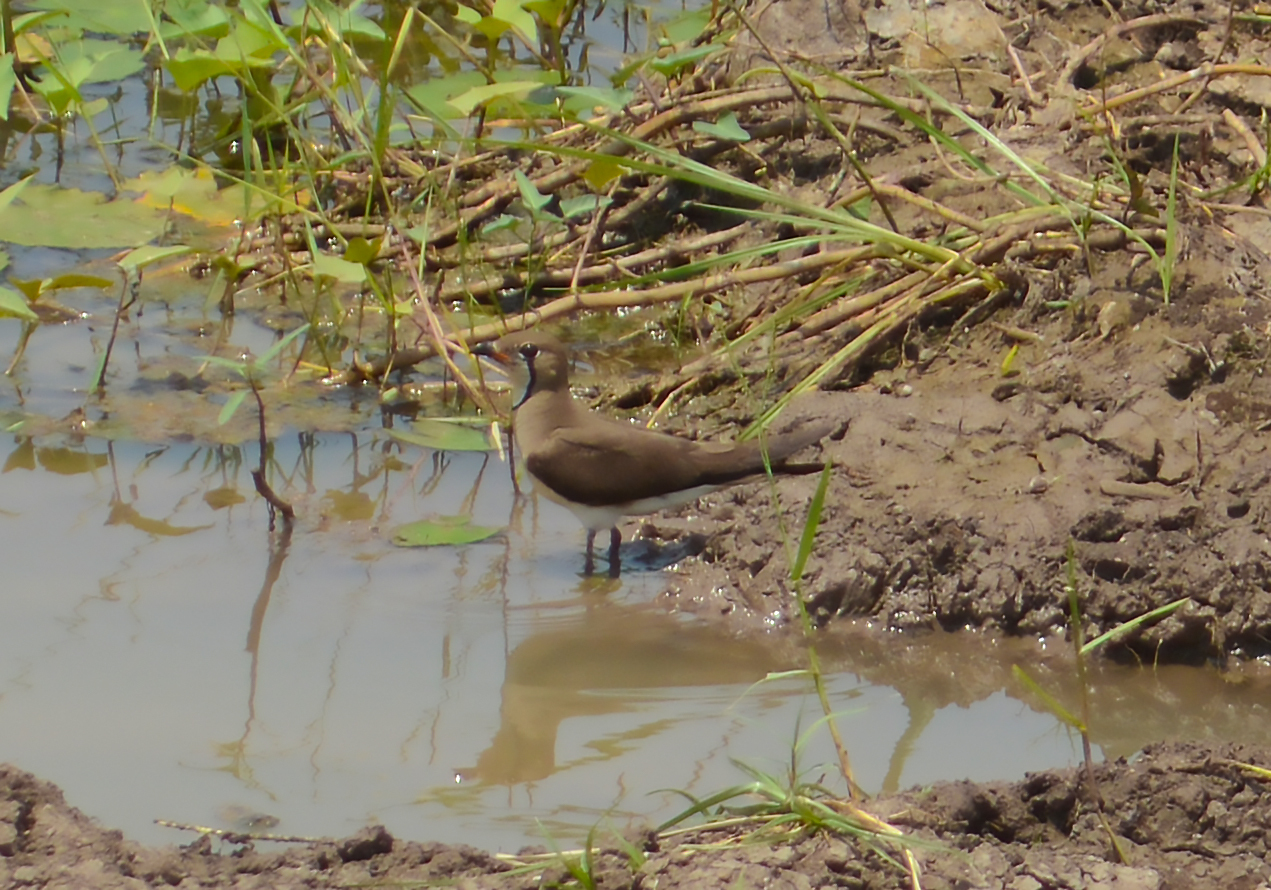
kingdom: Animalia
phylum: Chordata
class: Aves
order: Charadriiformes
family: Glareolidae
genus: Glareola
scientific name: Glareola maldivarum
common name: Oriental pratincole
